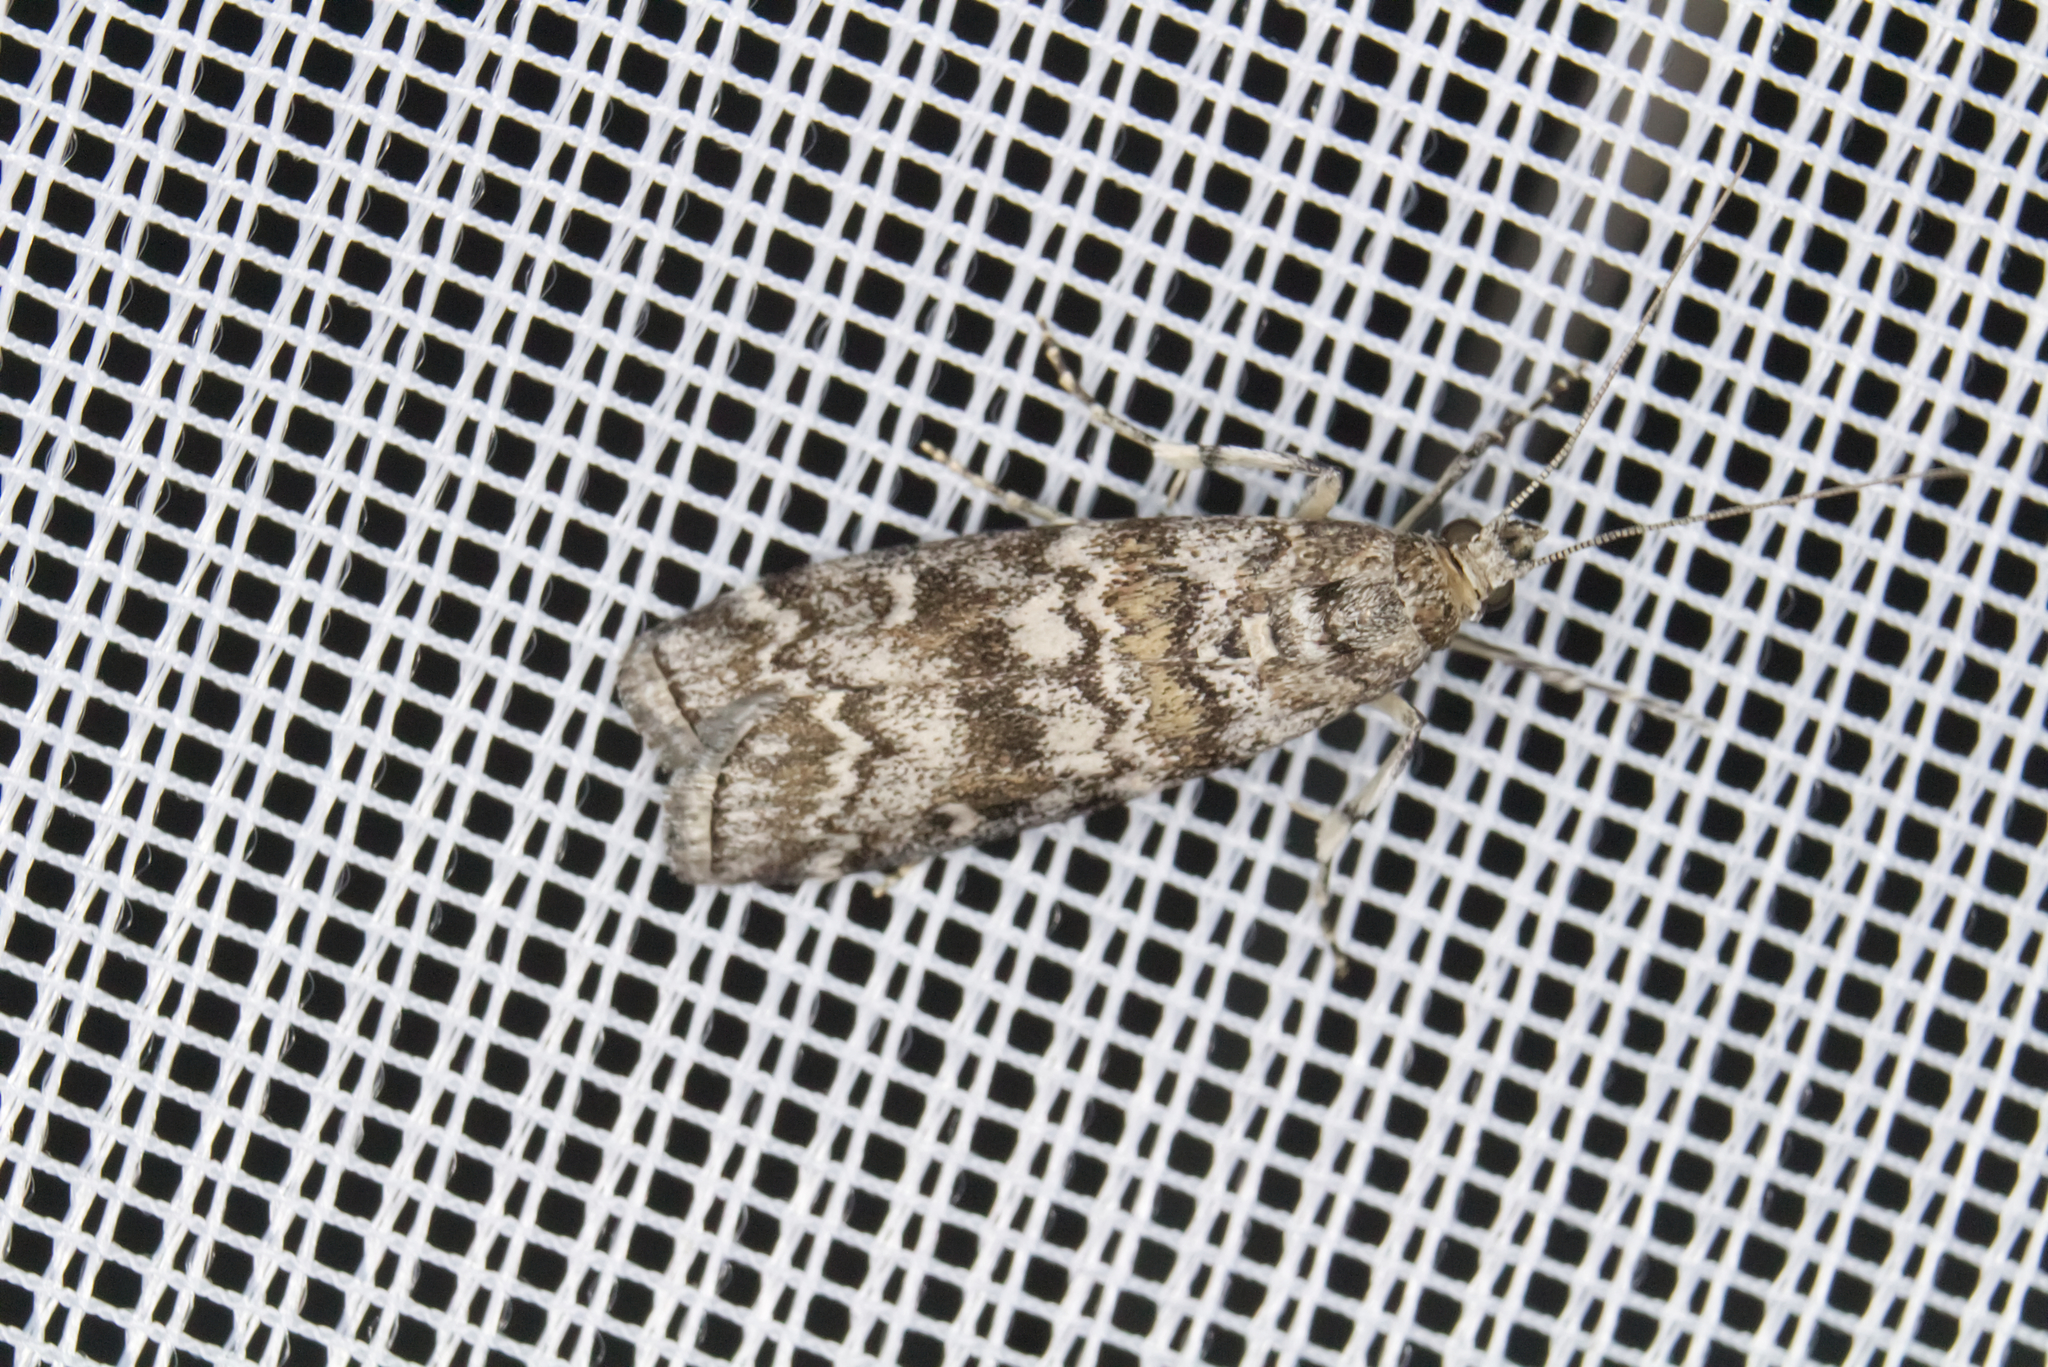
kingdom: Animalia
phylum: Arthropoda
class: Insecta
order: Lepidoptera
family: Pyralidae
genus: Dioryctria
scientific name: Dioryctria abietella
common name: Dark pine knot-horn
